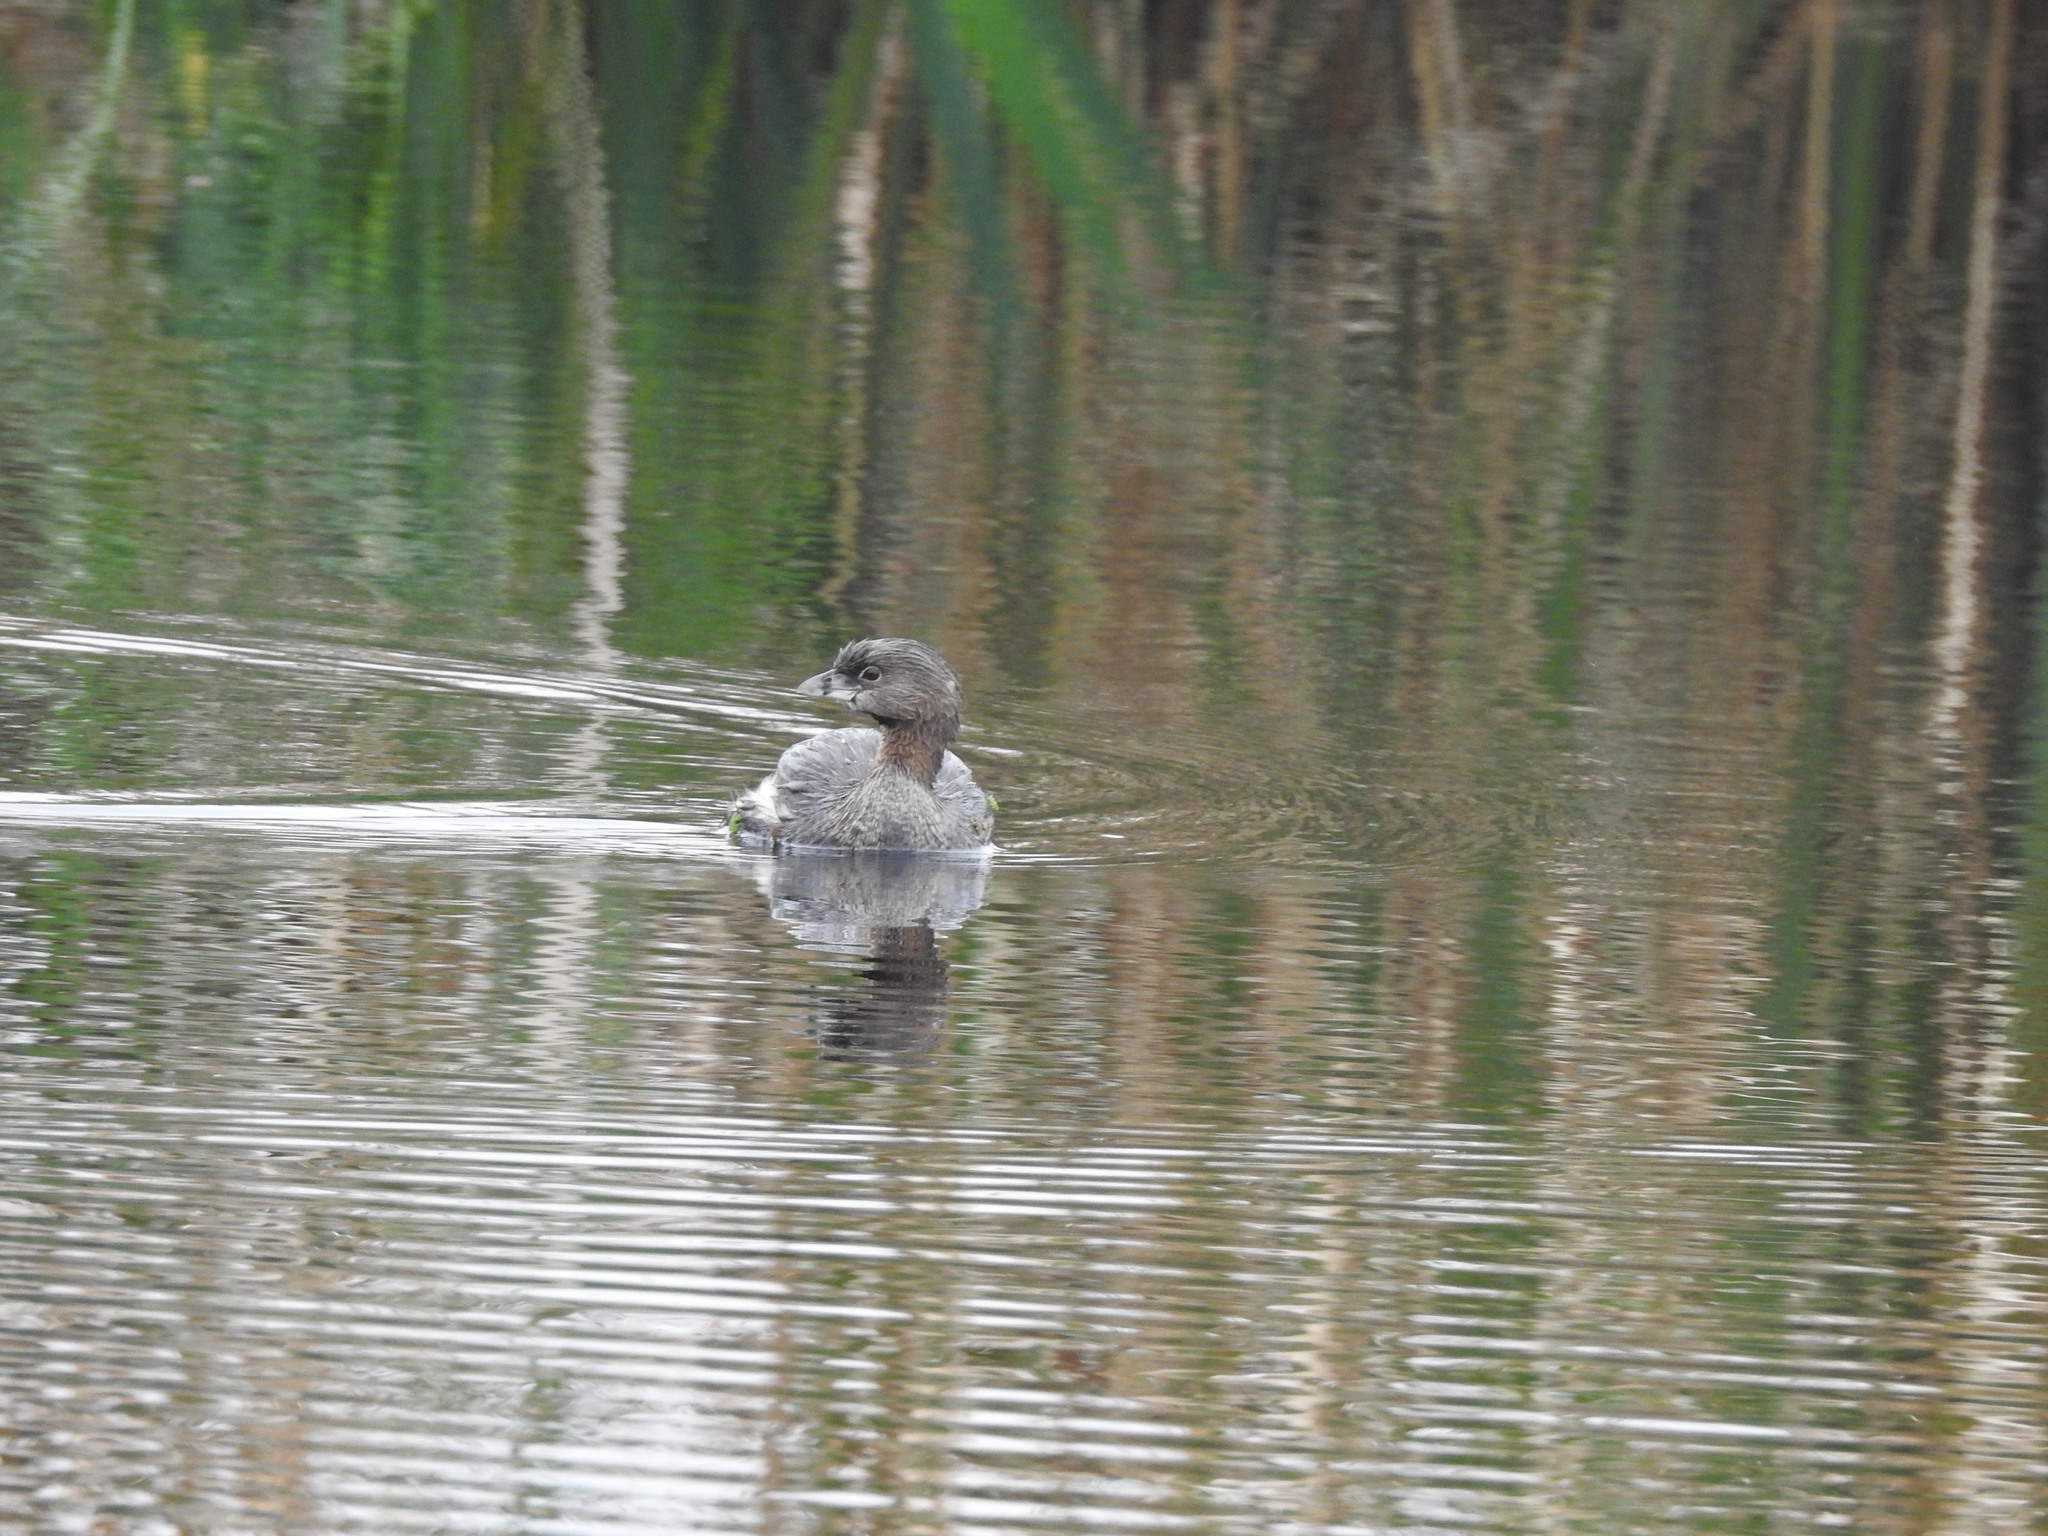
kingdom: Animalia
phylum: Chordata
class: Aves
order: Podicipediformes
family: Podicipedidae
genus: Podilymbus
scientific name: Podilymbus podiceps
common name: Pied-billed grebe
